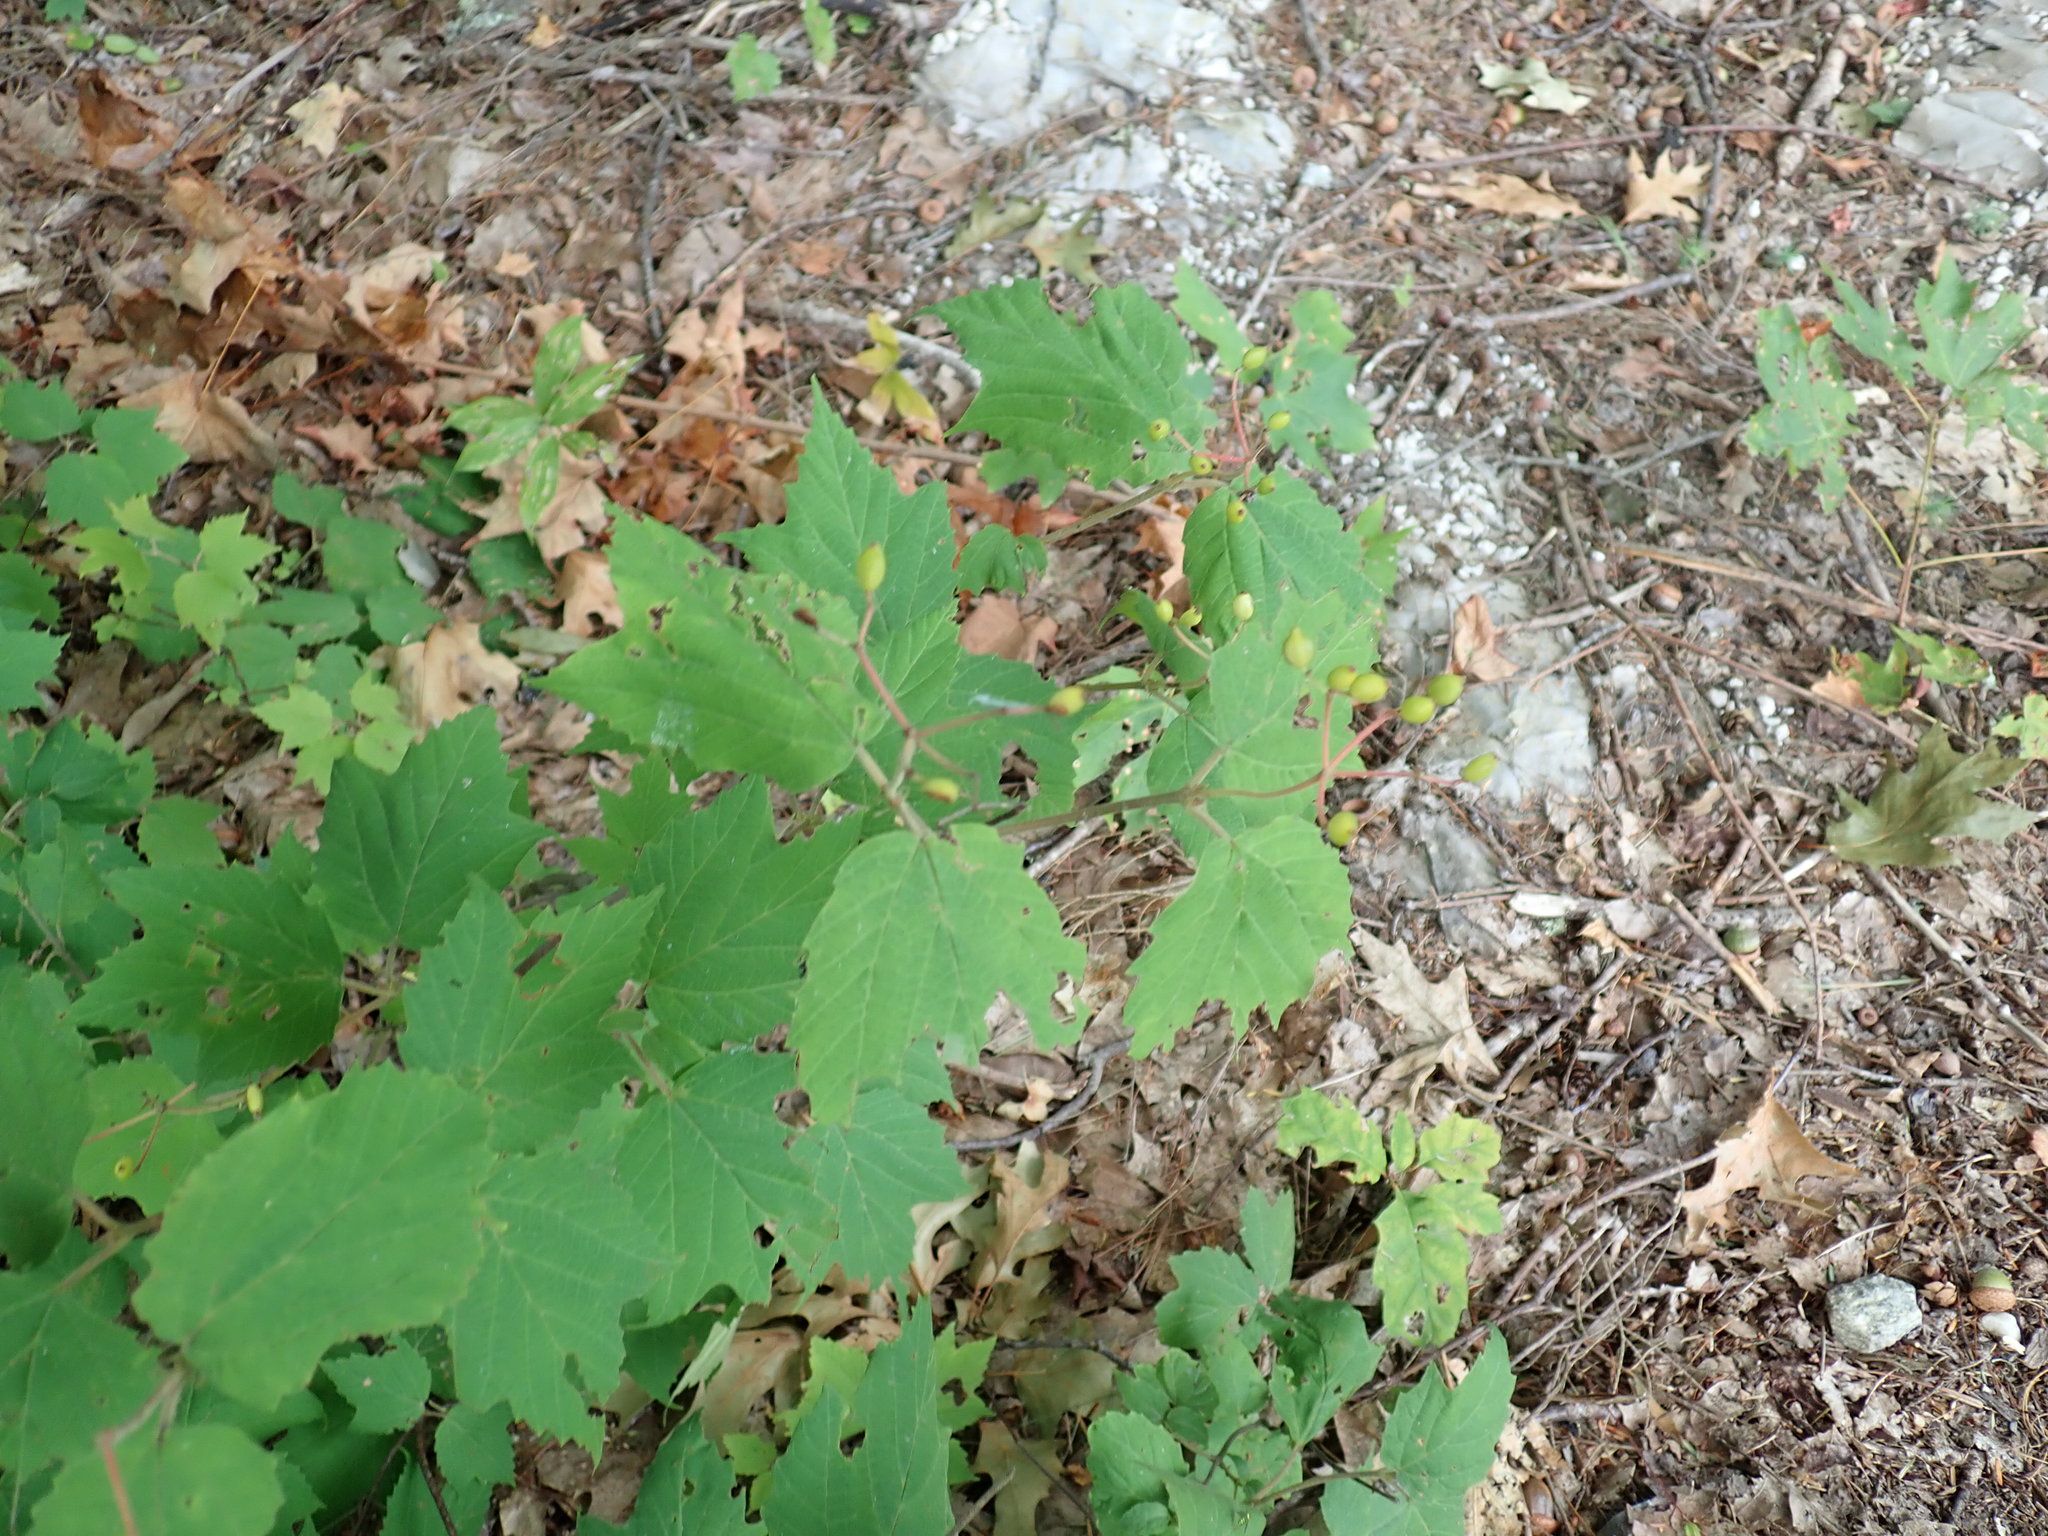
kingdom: Plantae
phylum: Tracheophyta
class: Magnoliopsida
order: Dipsacales
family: Viburnaceae
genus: Viburnum
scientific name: Viburnum acerifolium
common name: Dockmackie
